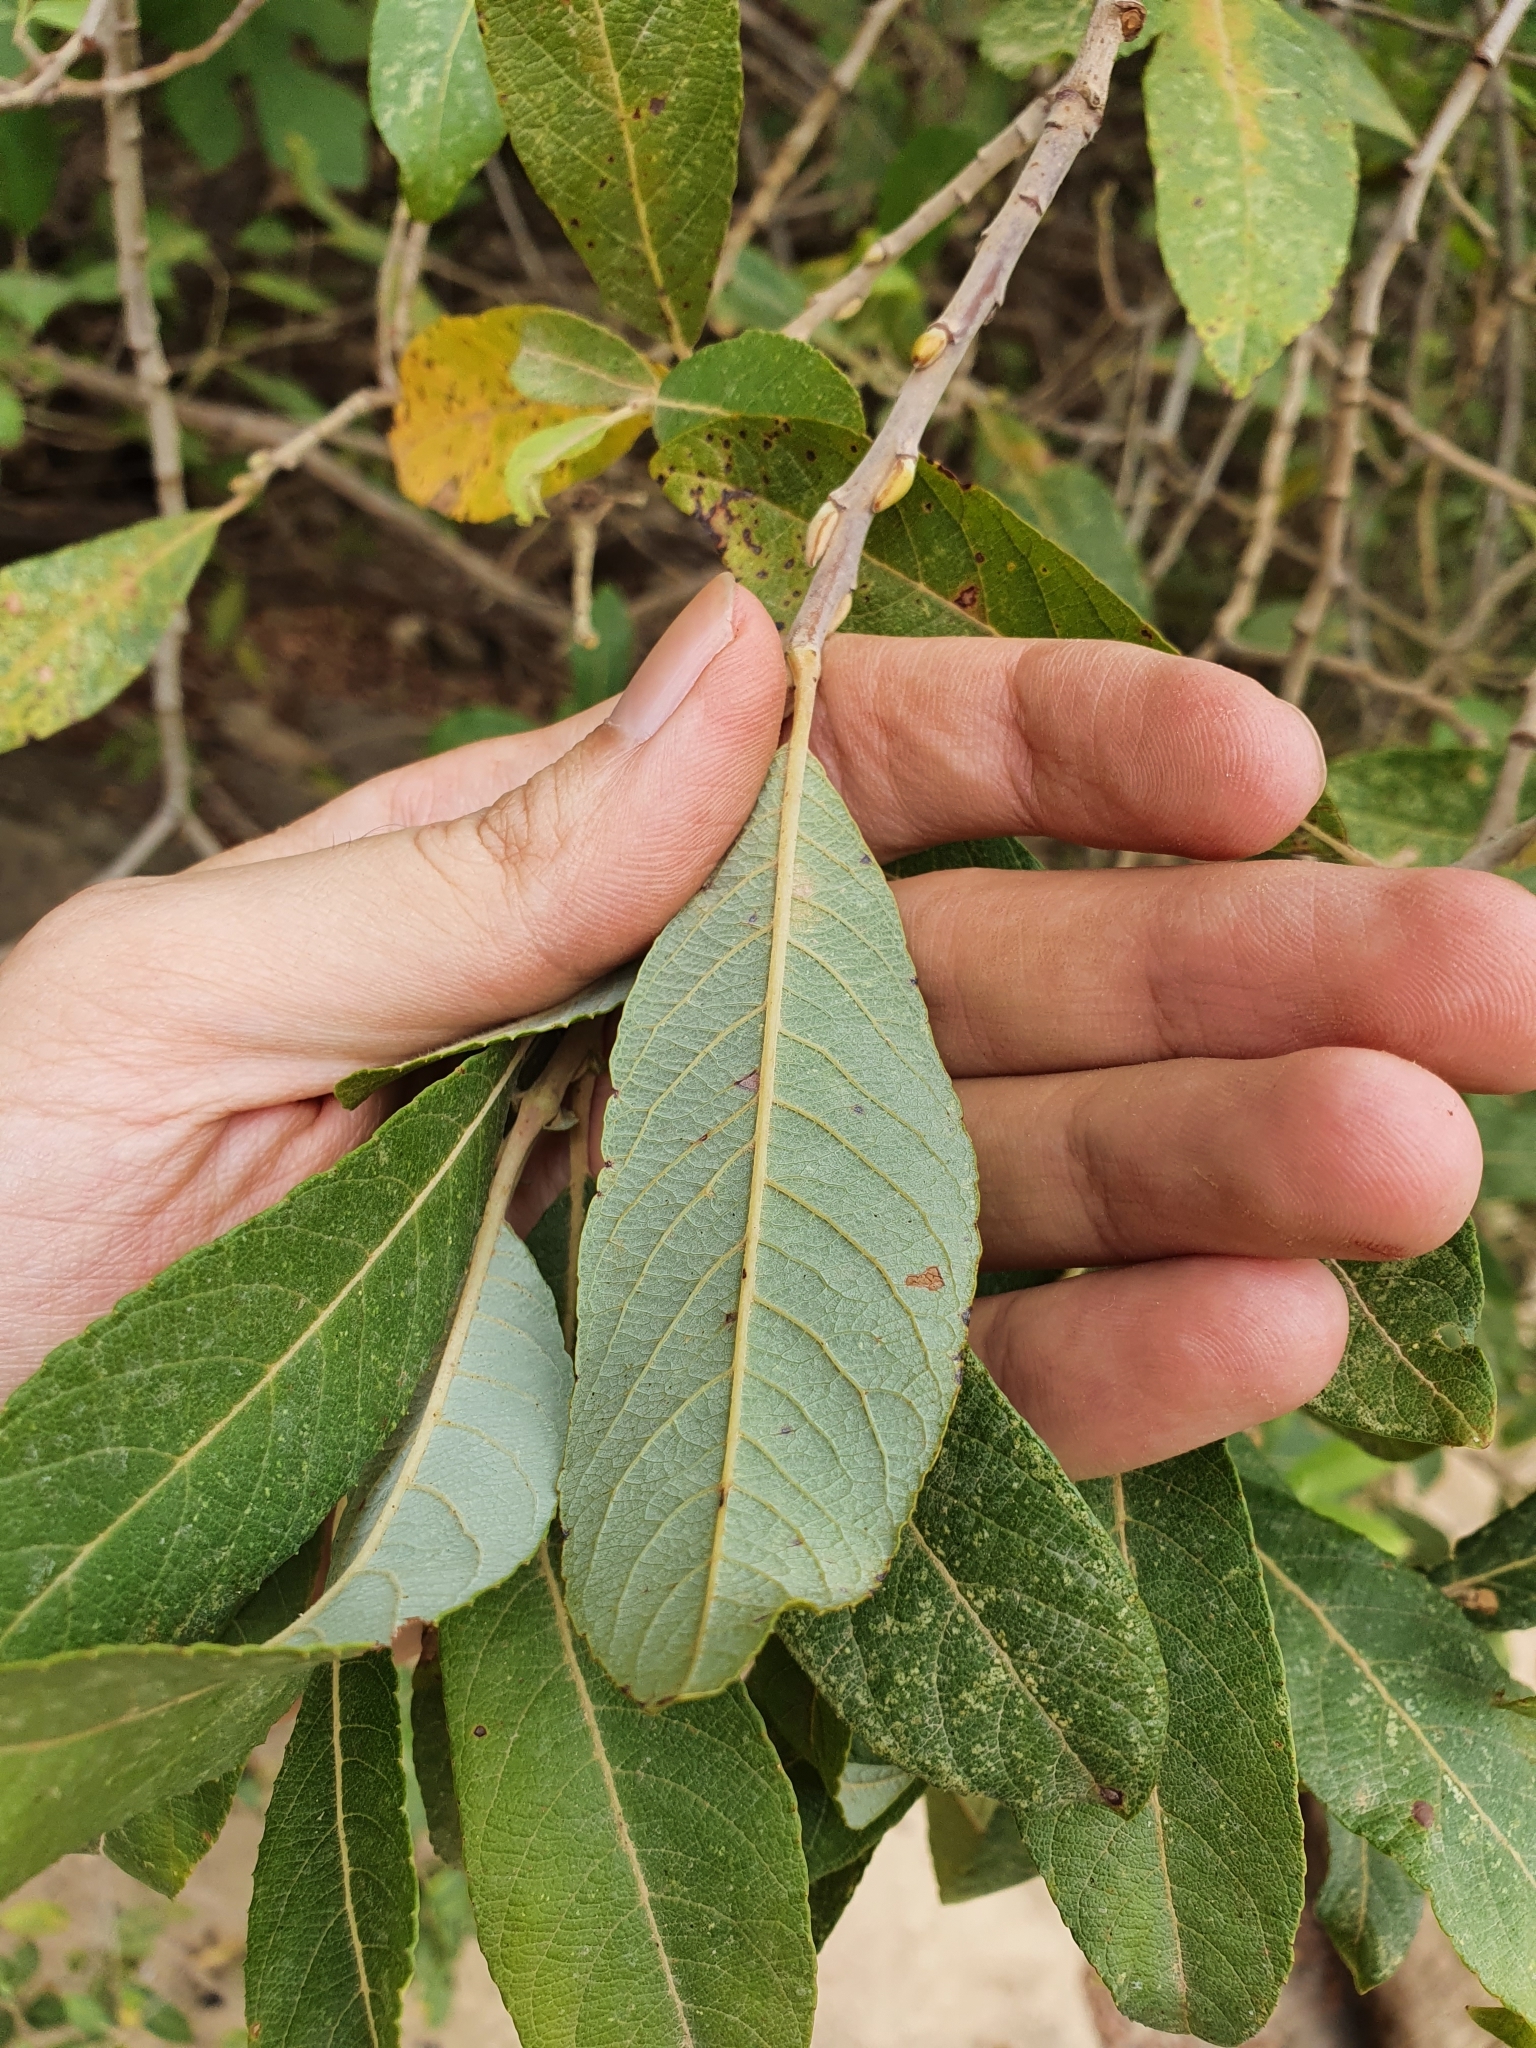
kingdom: Plantae
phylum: Tracheophyta
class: Magnoliopsida
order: Malpighiales
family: Salicaceae
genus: Salix
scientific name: Salix pedicellata
